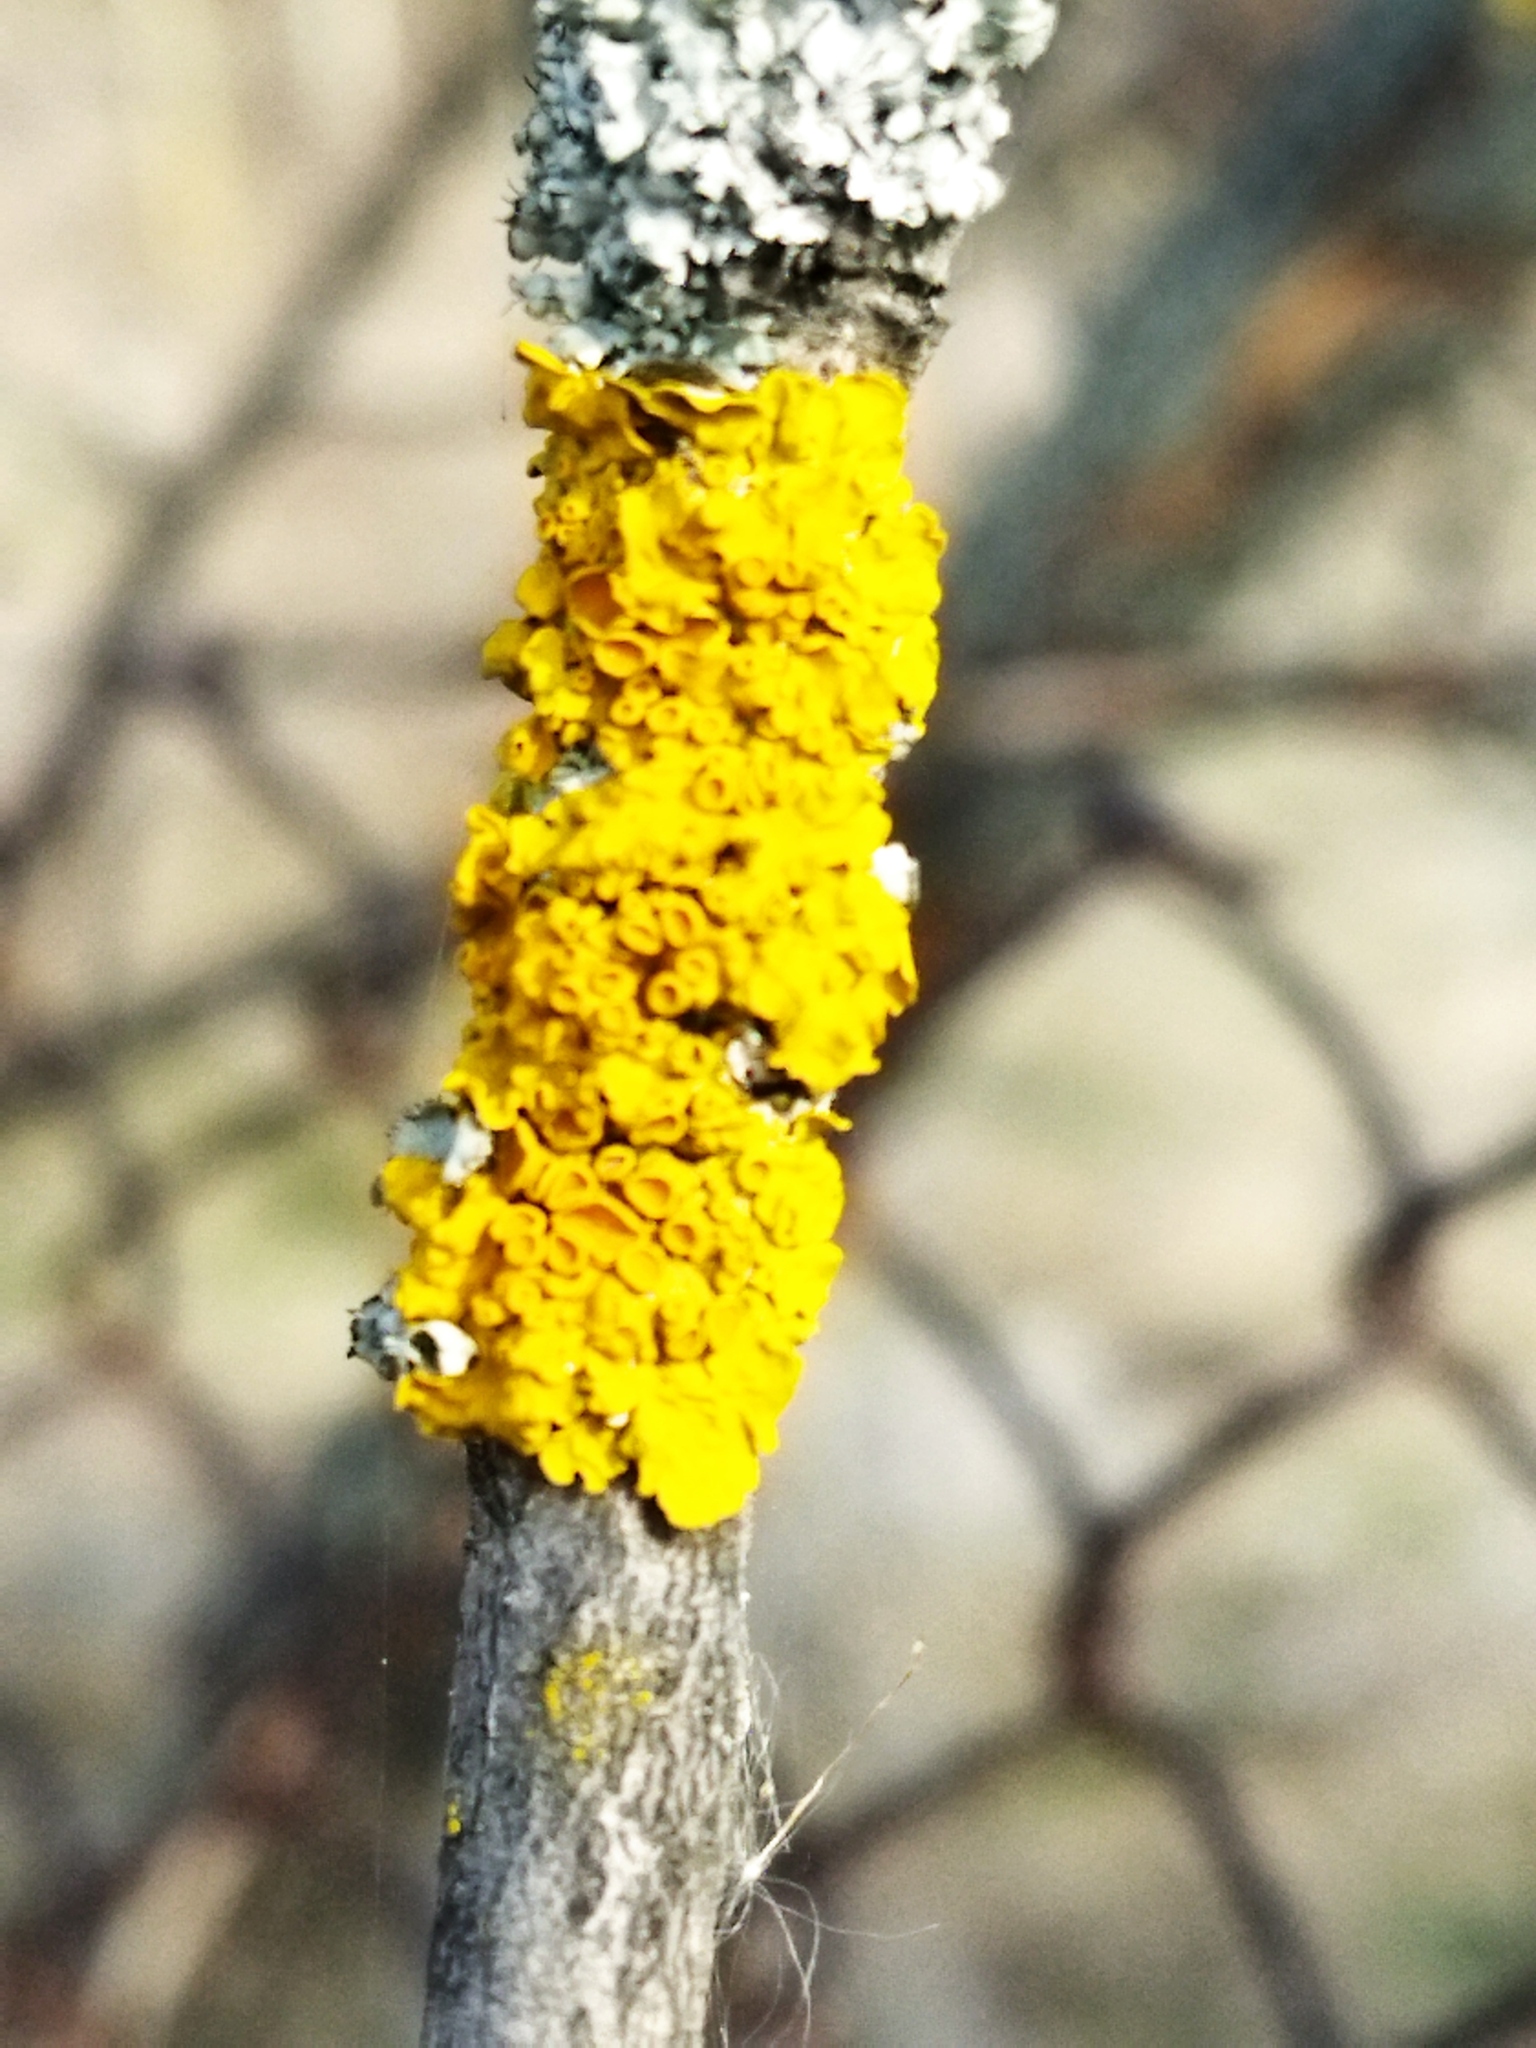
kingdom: Fungi
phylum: Ascomycota
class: Lecanoromycetes
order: Teloschistales
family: Teloschistaceae
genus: Xanthoria
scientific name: Xanthoria parietina
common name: Common orange lichen
